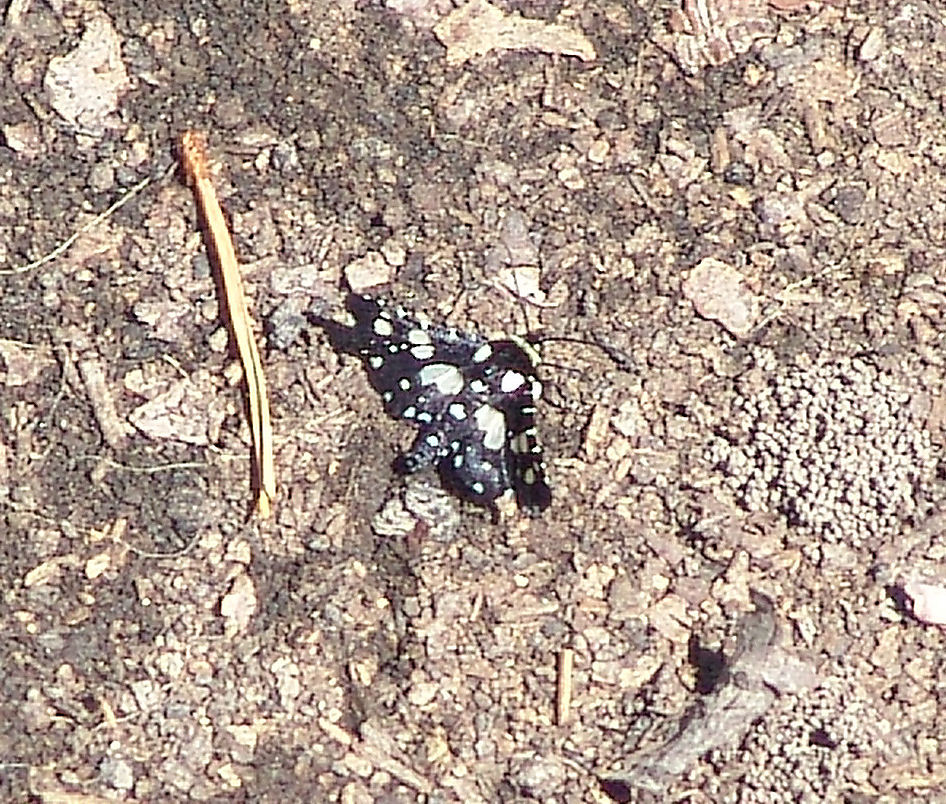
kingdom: Animalia
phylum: Arthropoda
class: Insecta
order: Lepidoptera
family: Thyrididae
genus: Pseudothyris
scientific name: Pseudothyris sepulchralis
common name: Mournful thyris moth
